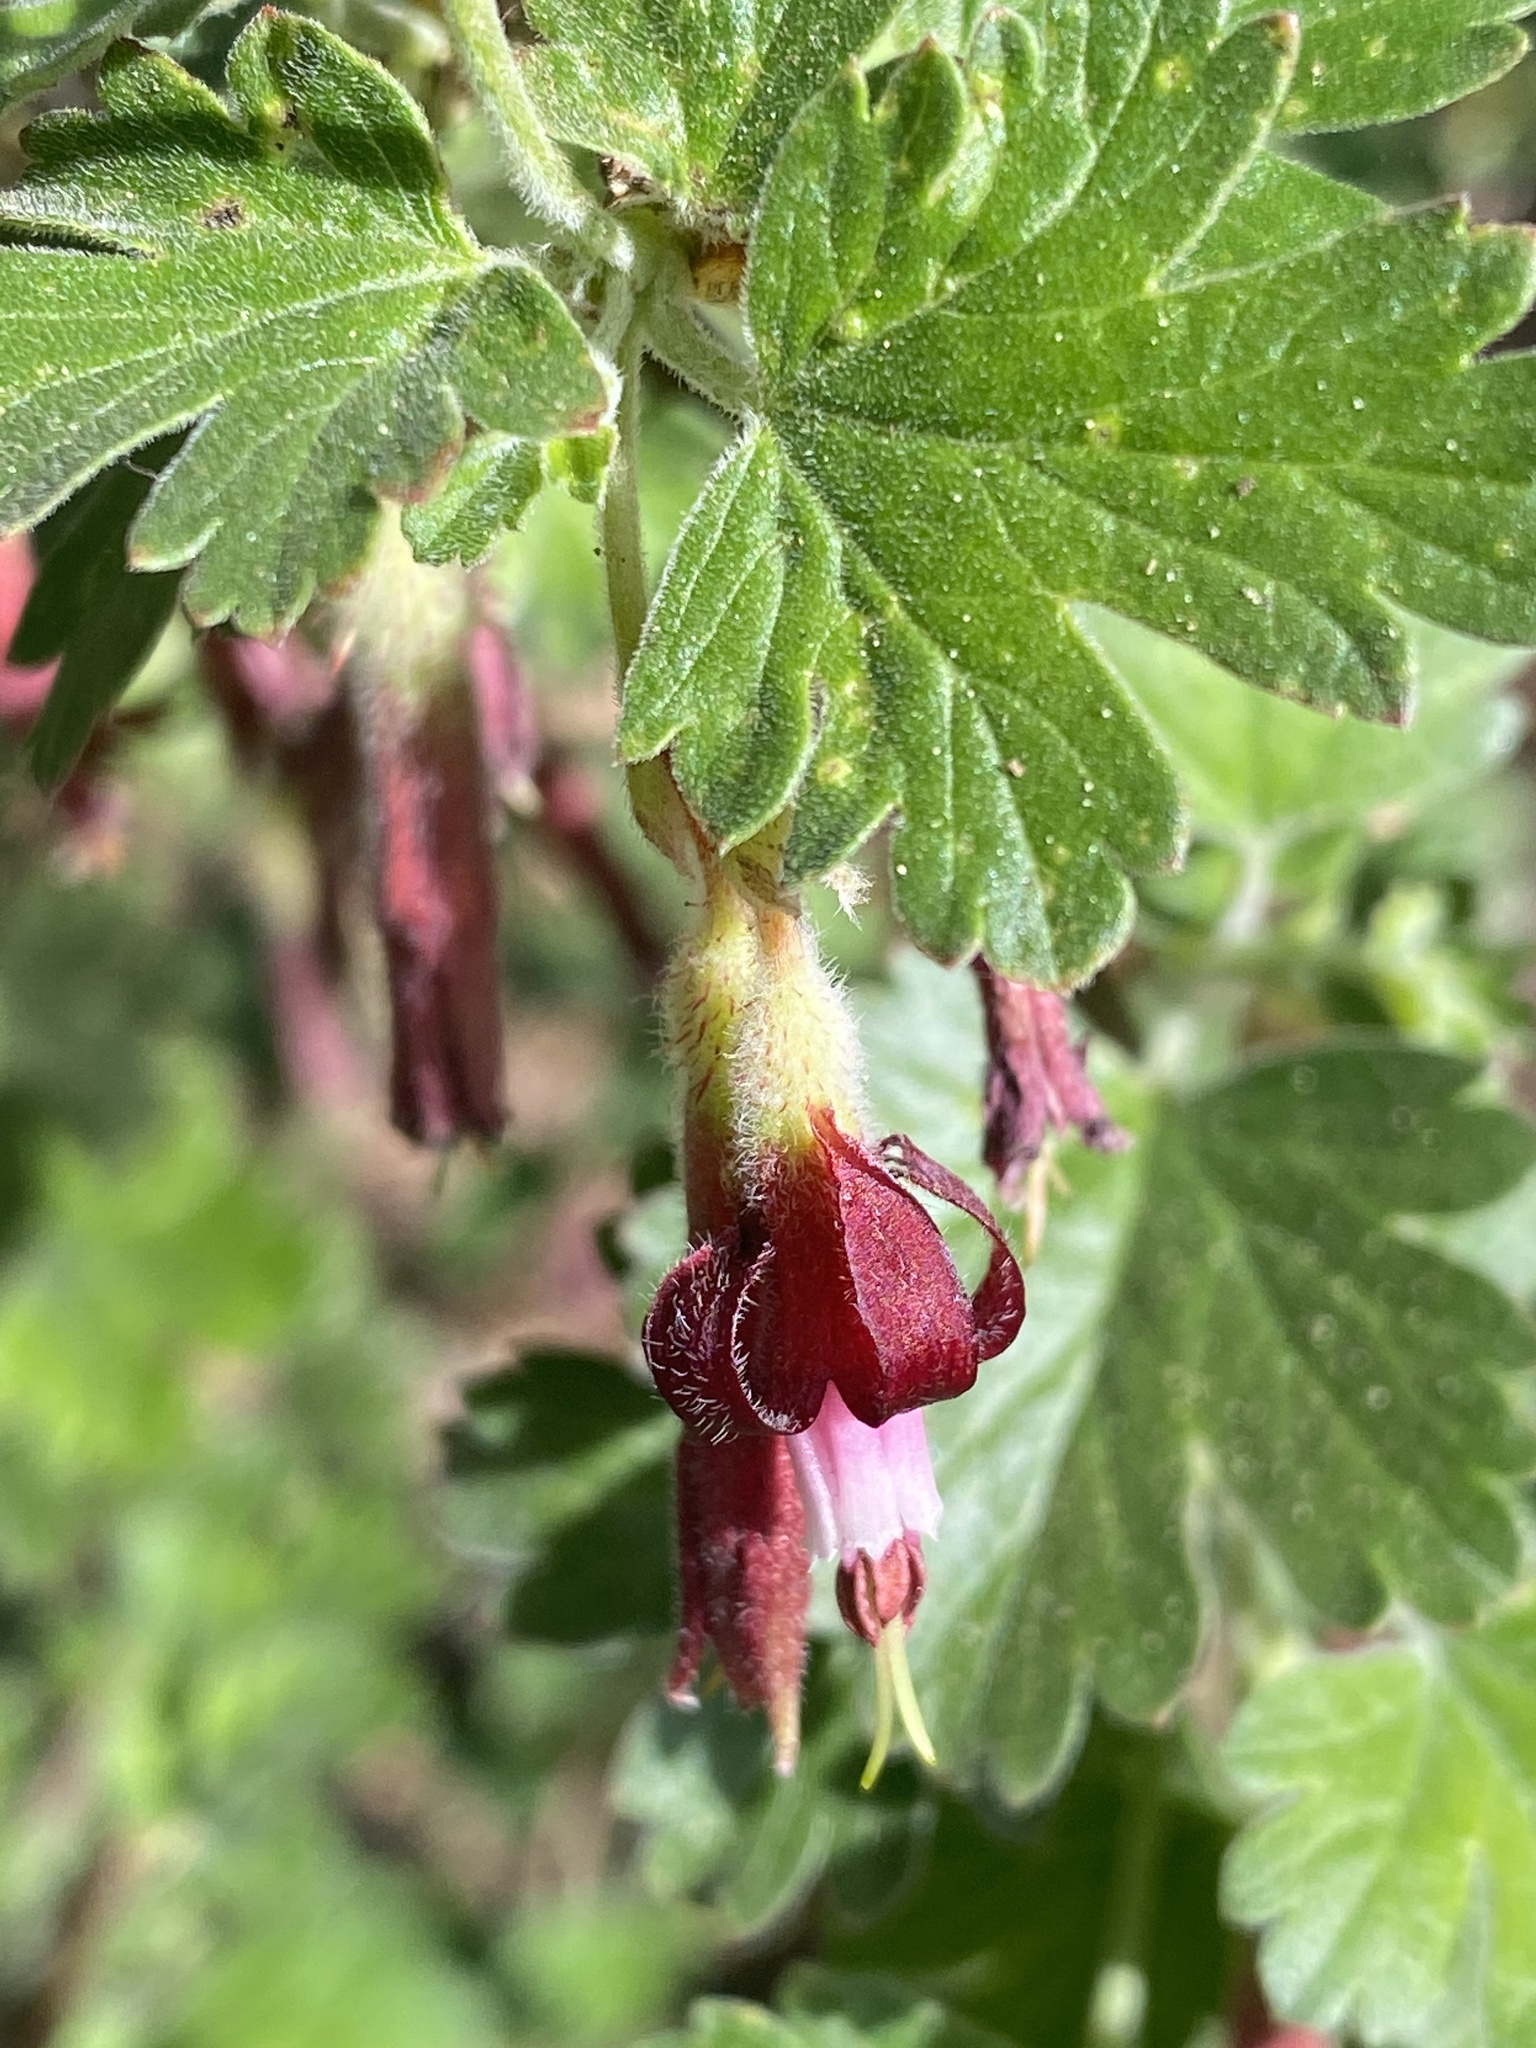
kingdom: Plantae
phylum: Tracheophyta
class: Magnoliopsida
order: Saxifragales
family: Grossulariaceae
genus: Ribes
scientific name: Ribes roezlii
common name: Sierra gooseberry
